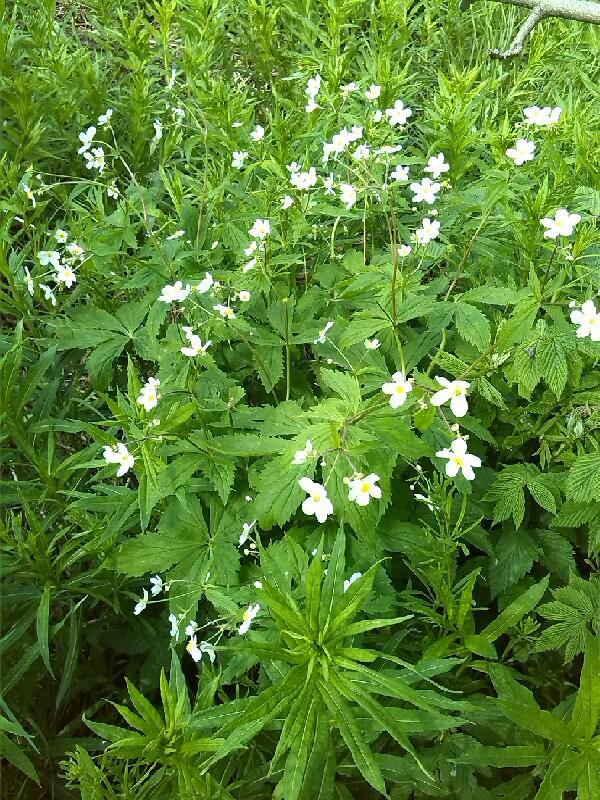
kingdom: Plantae
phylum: Tracheophyta
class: Magnoliopsida
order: Ranunculales
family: Ranunculaceae
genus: Ranunculus
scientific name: Ranunculus aconitifolius
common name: Aconite-leaved buttercup
